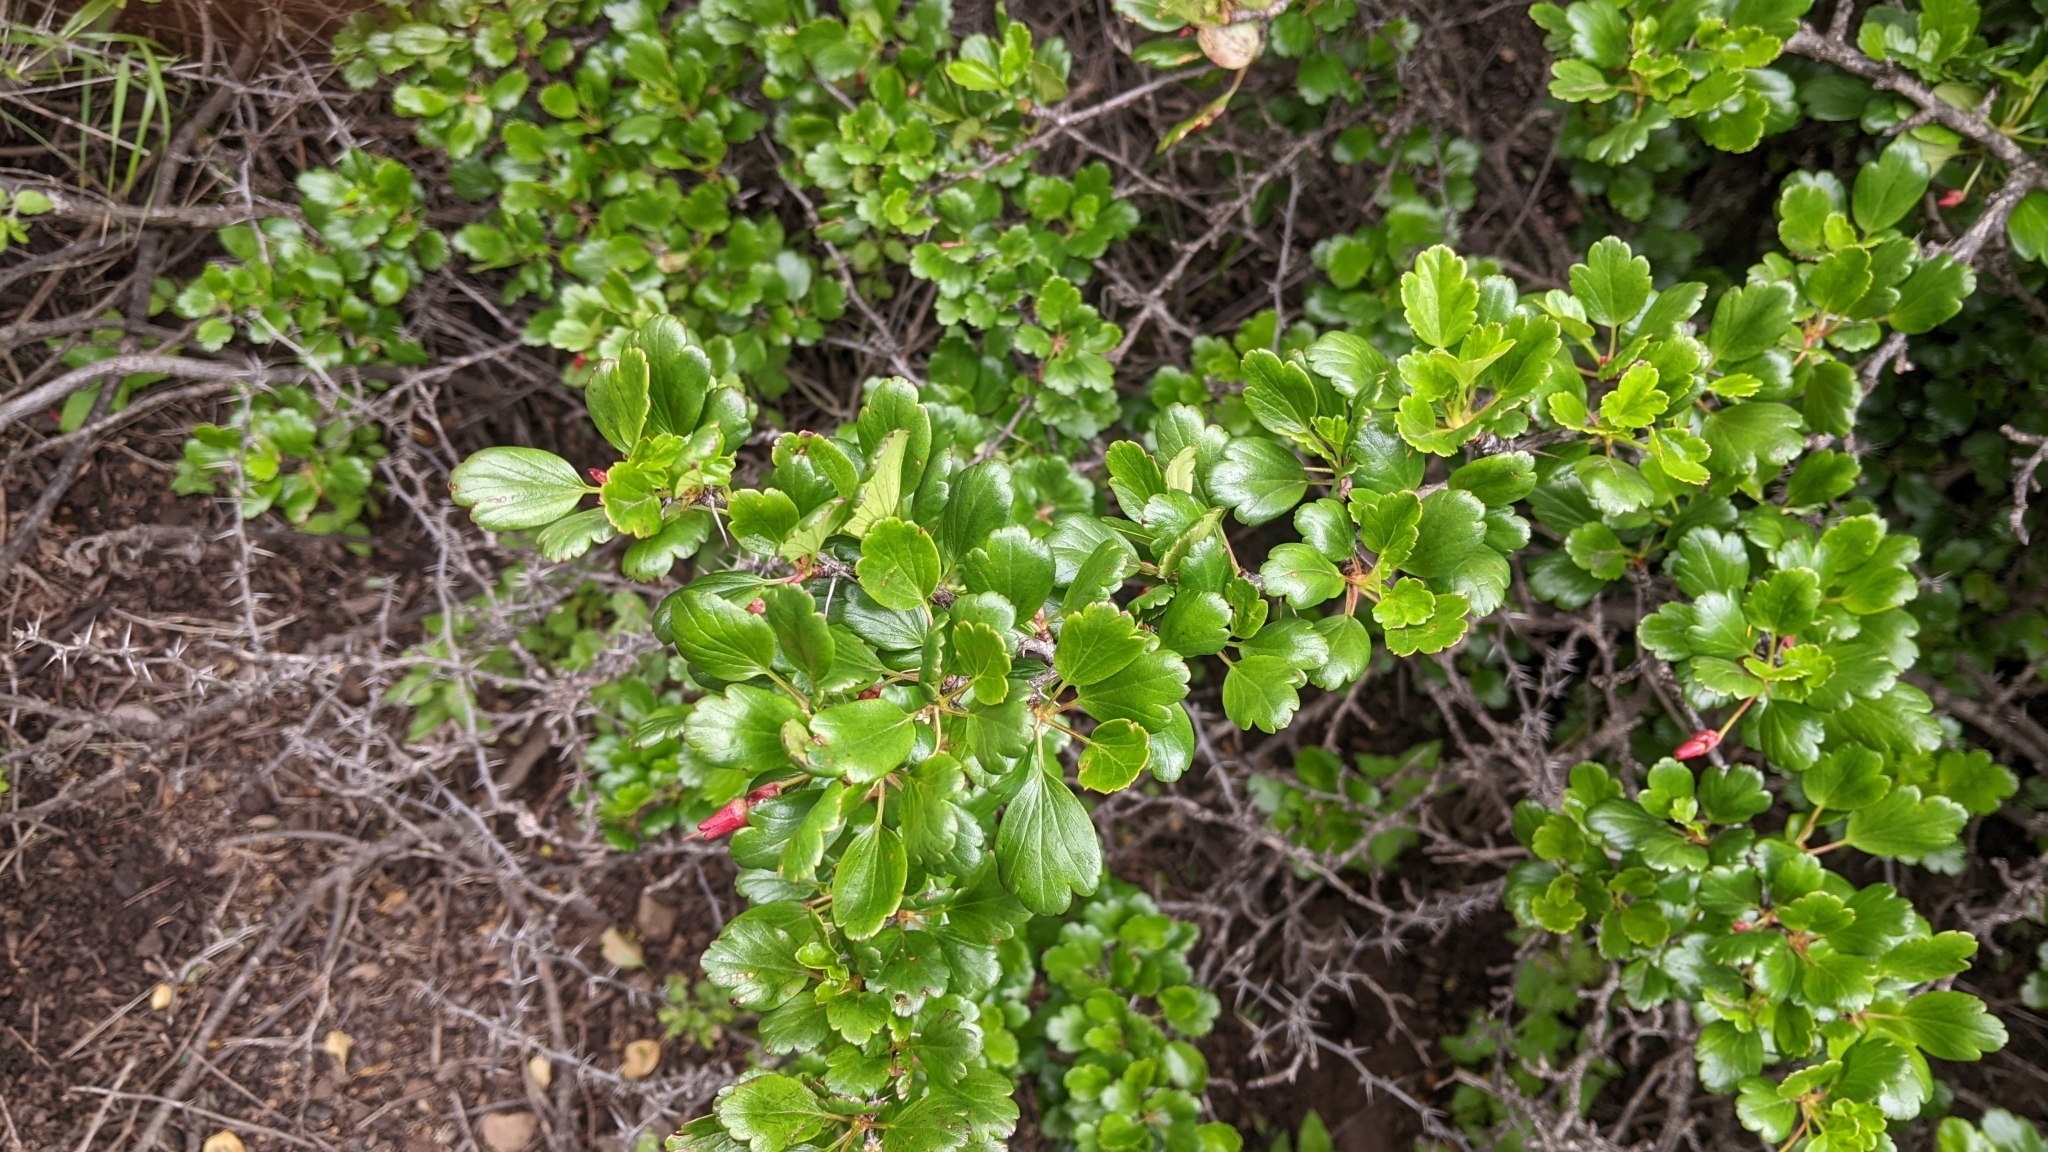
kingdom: Plantae
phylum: Tracheophyta
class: Magnoliopsida
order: Saxifragales
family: Grossulariaceae
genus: Ribes
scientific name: Ribes speciosum
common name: Fuchsia-flower gooseberry
